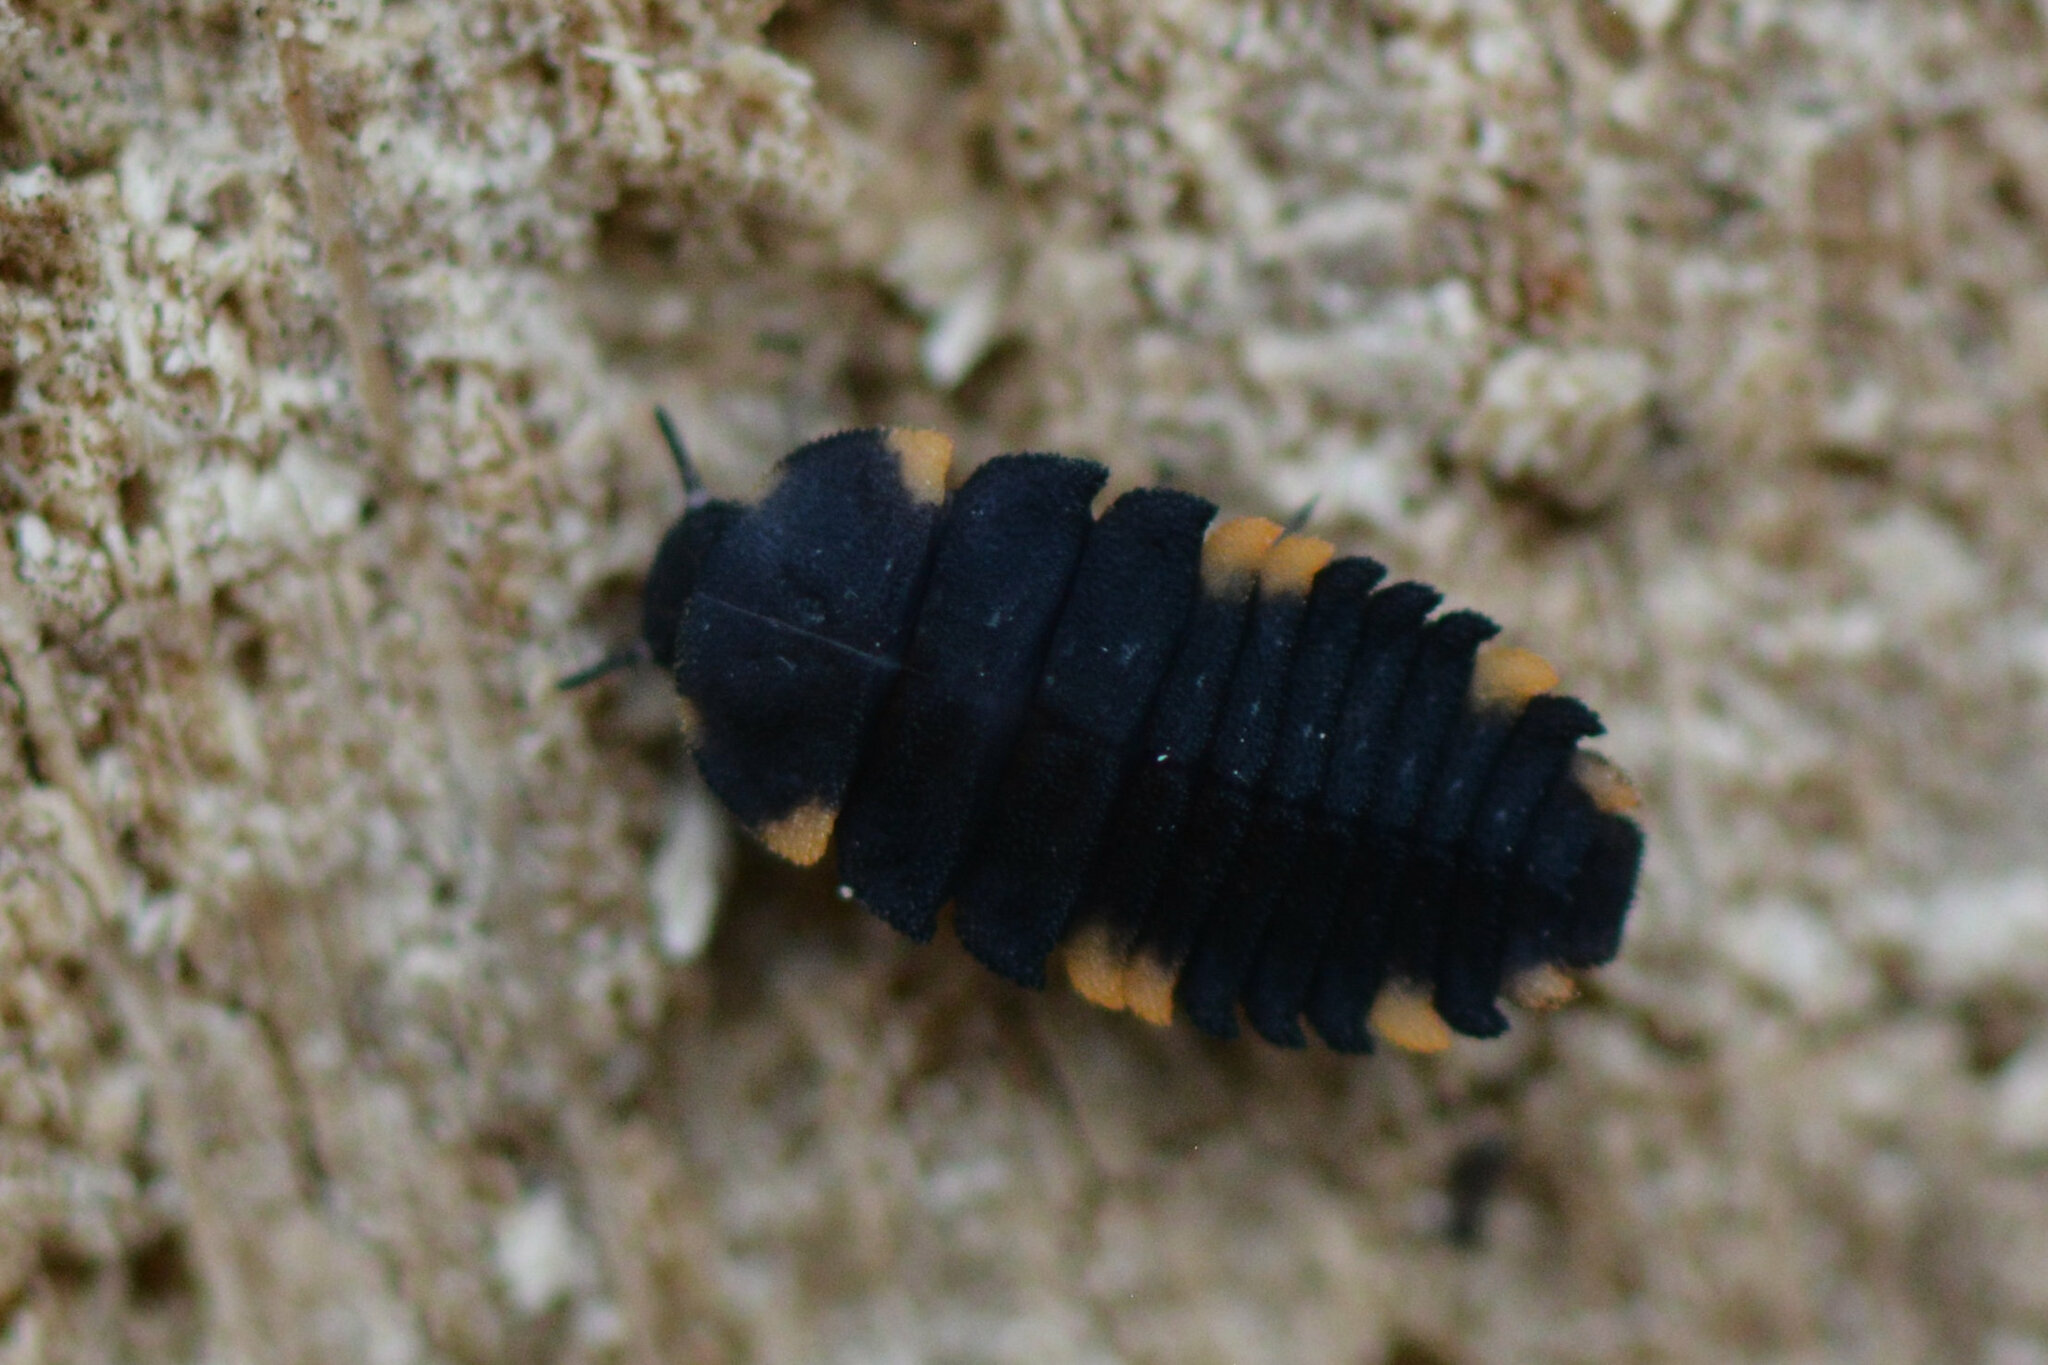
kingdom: Animalia
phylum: Arthropoda
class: Insecta
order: Coleoptera
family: Endomychidae
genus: Endomychus
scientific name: Endomychus coccineus
